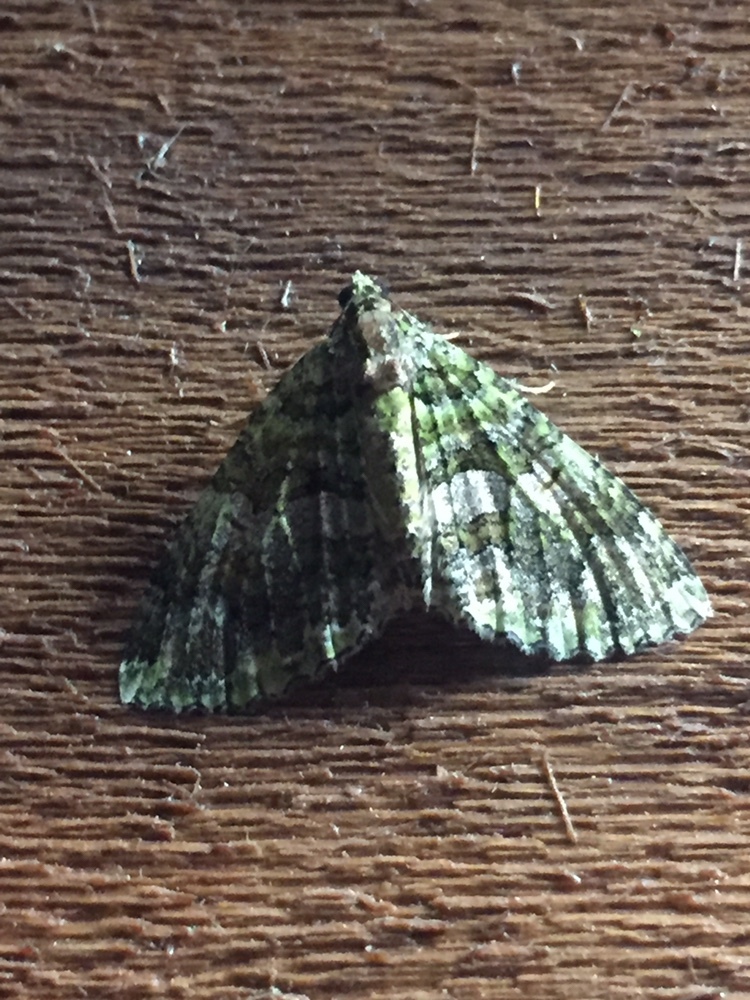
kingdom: Animalia
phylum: Arthropoda
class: Insecta
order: Lepidoptera
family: Geometridae
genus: Austrocidaria
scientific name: Austrocidaria similata
